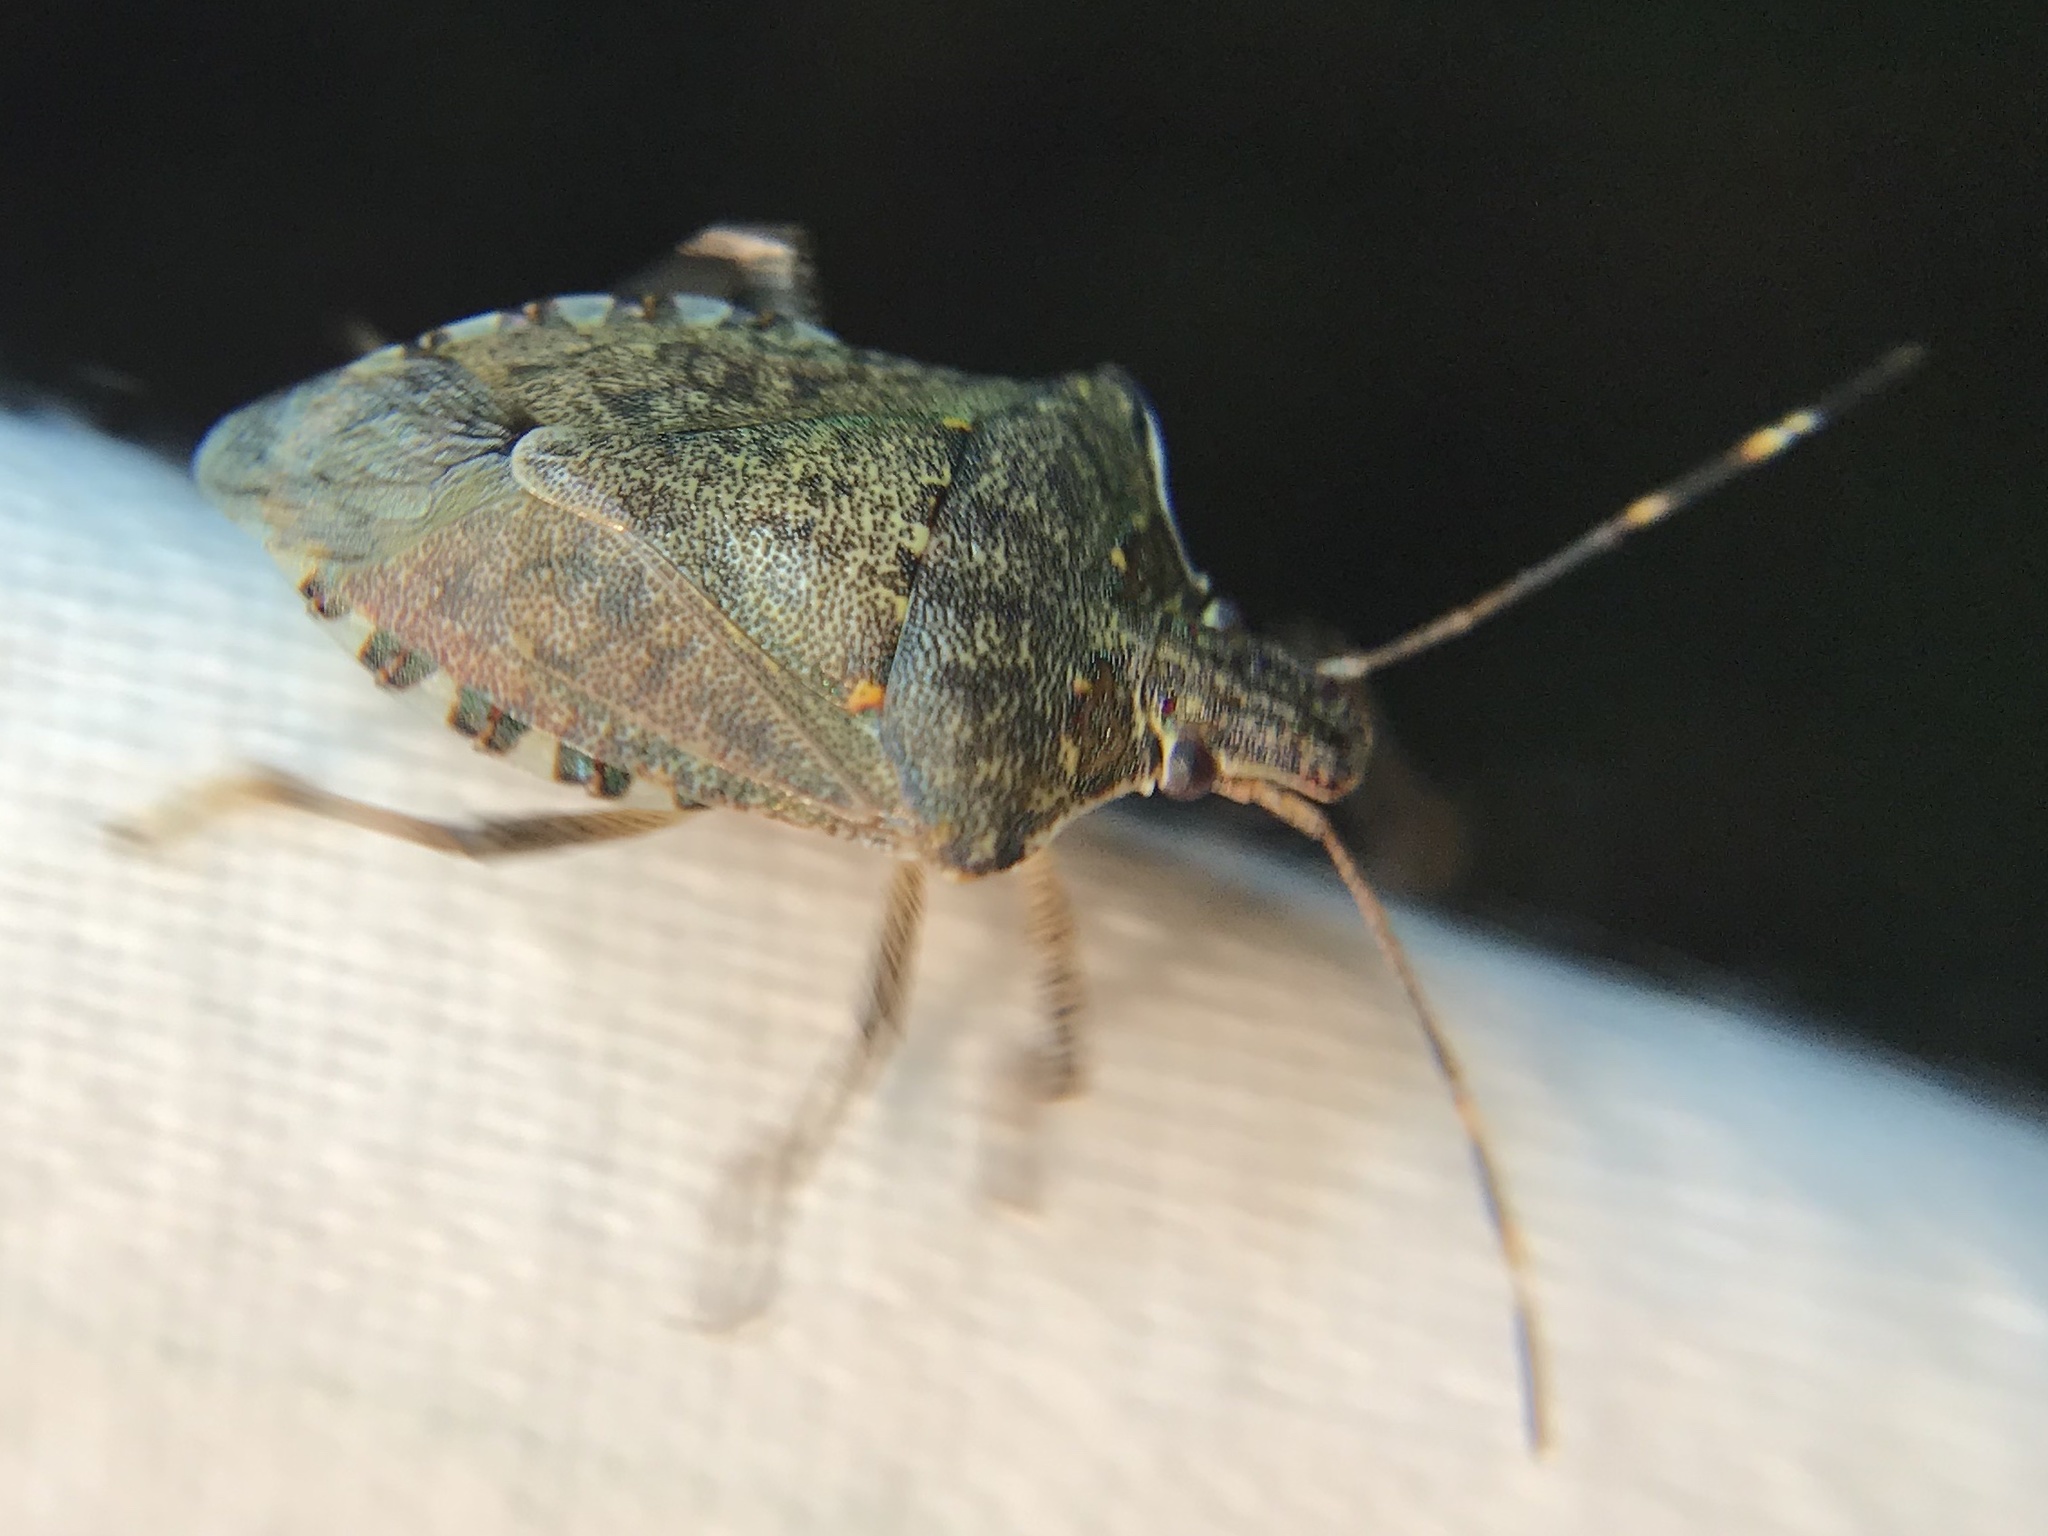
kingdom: Animalia
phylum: Arthropoda
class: Insecta
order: Hemiptera
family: Pentatomidae
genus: Halyomorpha
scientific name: Halyomorpha halys
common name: Brown marmorated stink bug
